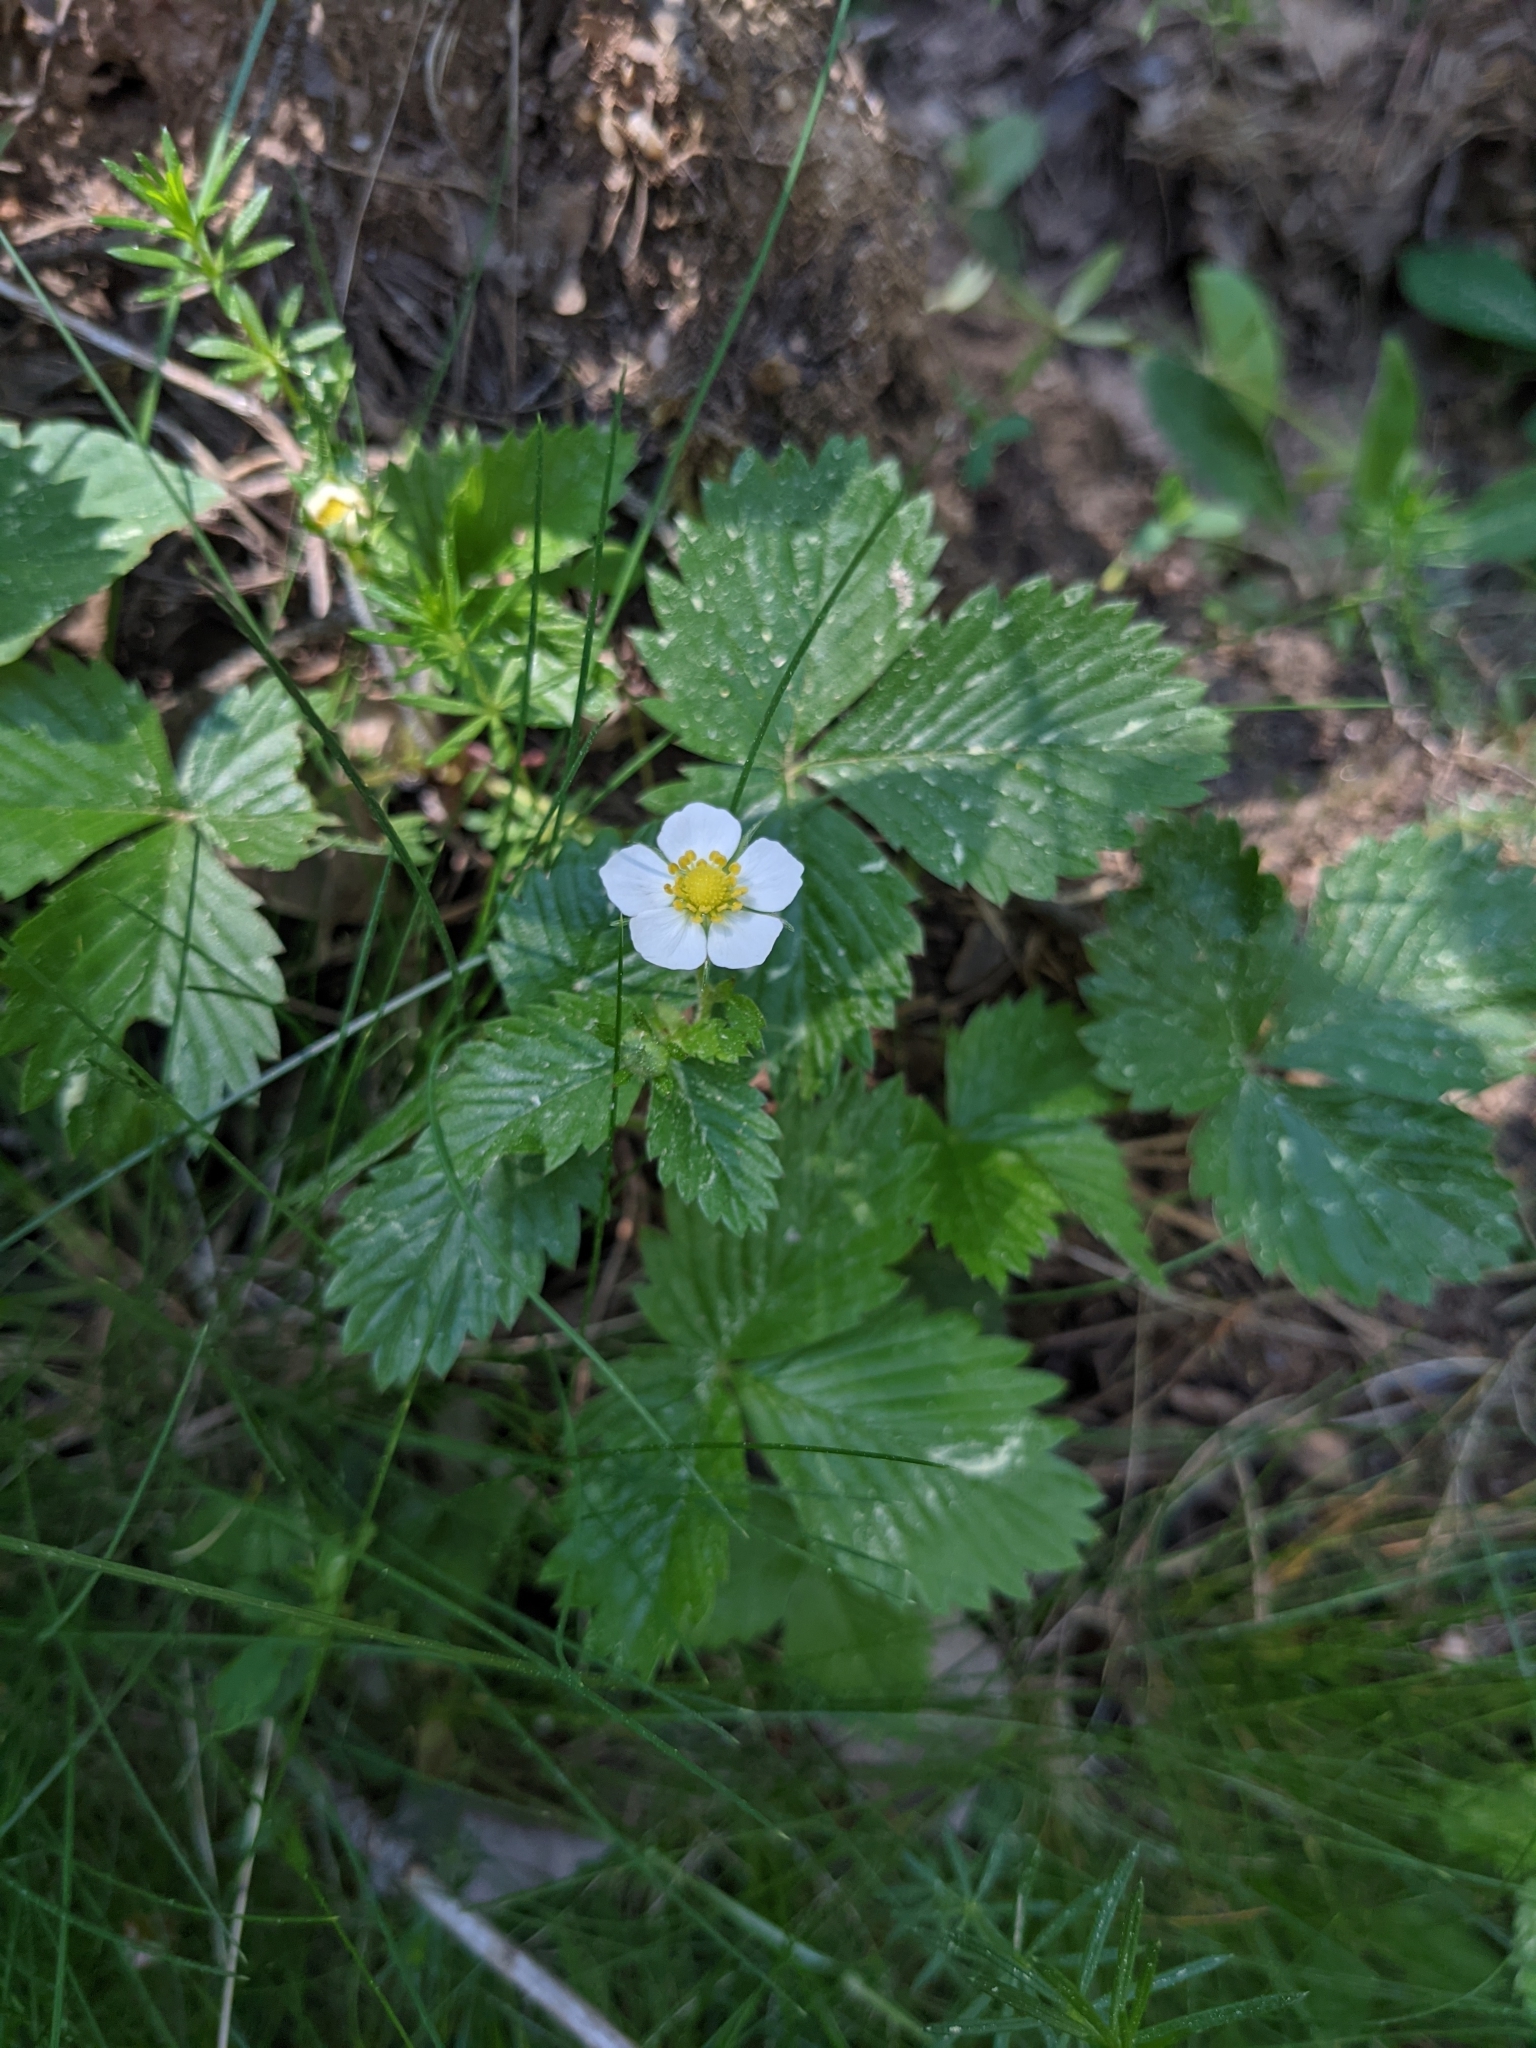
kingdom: Plantae
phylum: Tracheophyta
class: Magnoliopsida
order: Rosales
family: Rosaceae
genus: Fragaria
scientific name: Fragaria vesca
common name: Wild strawberry
